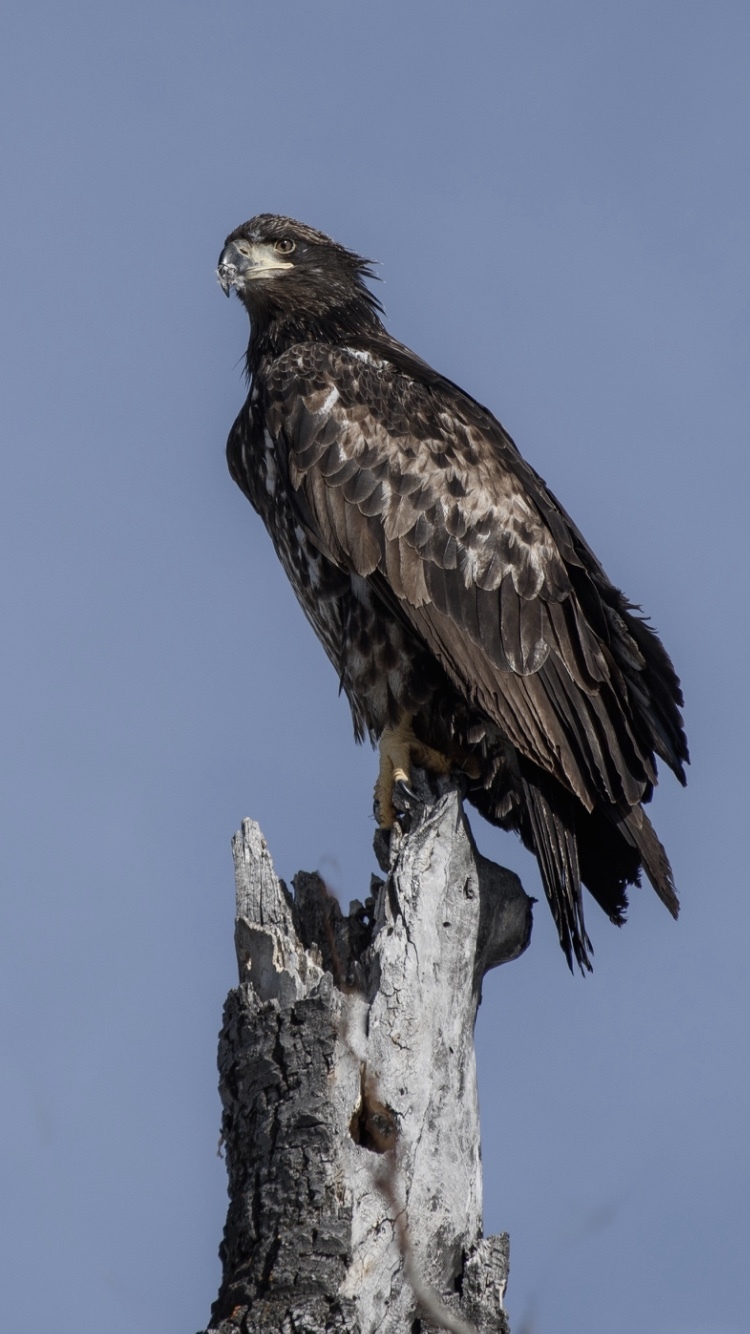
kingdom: Animalia
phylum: Chordata
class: Aves
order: Accipitriformes
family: Accipitridae
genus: Haliaeetus
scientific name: Haliaeetus leucocephalus
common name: Bald eagle
